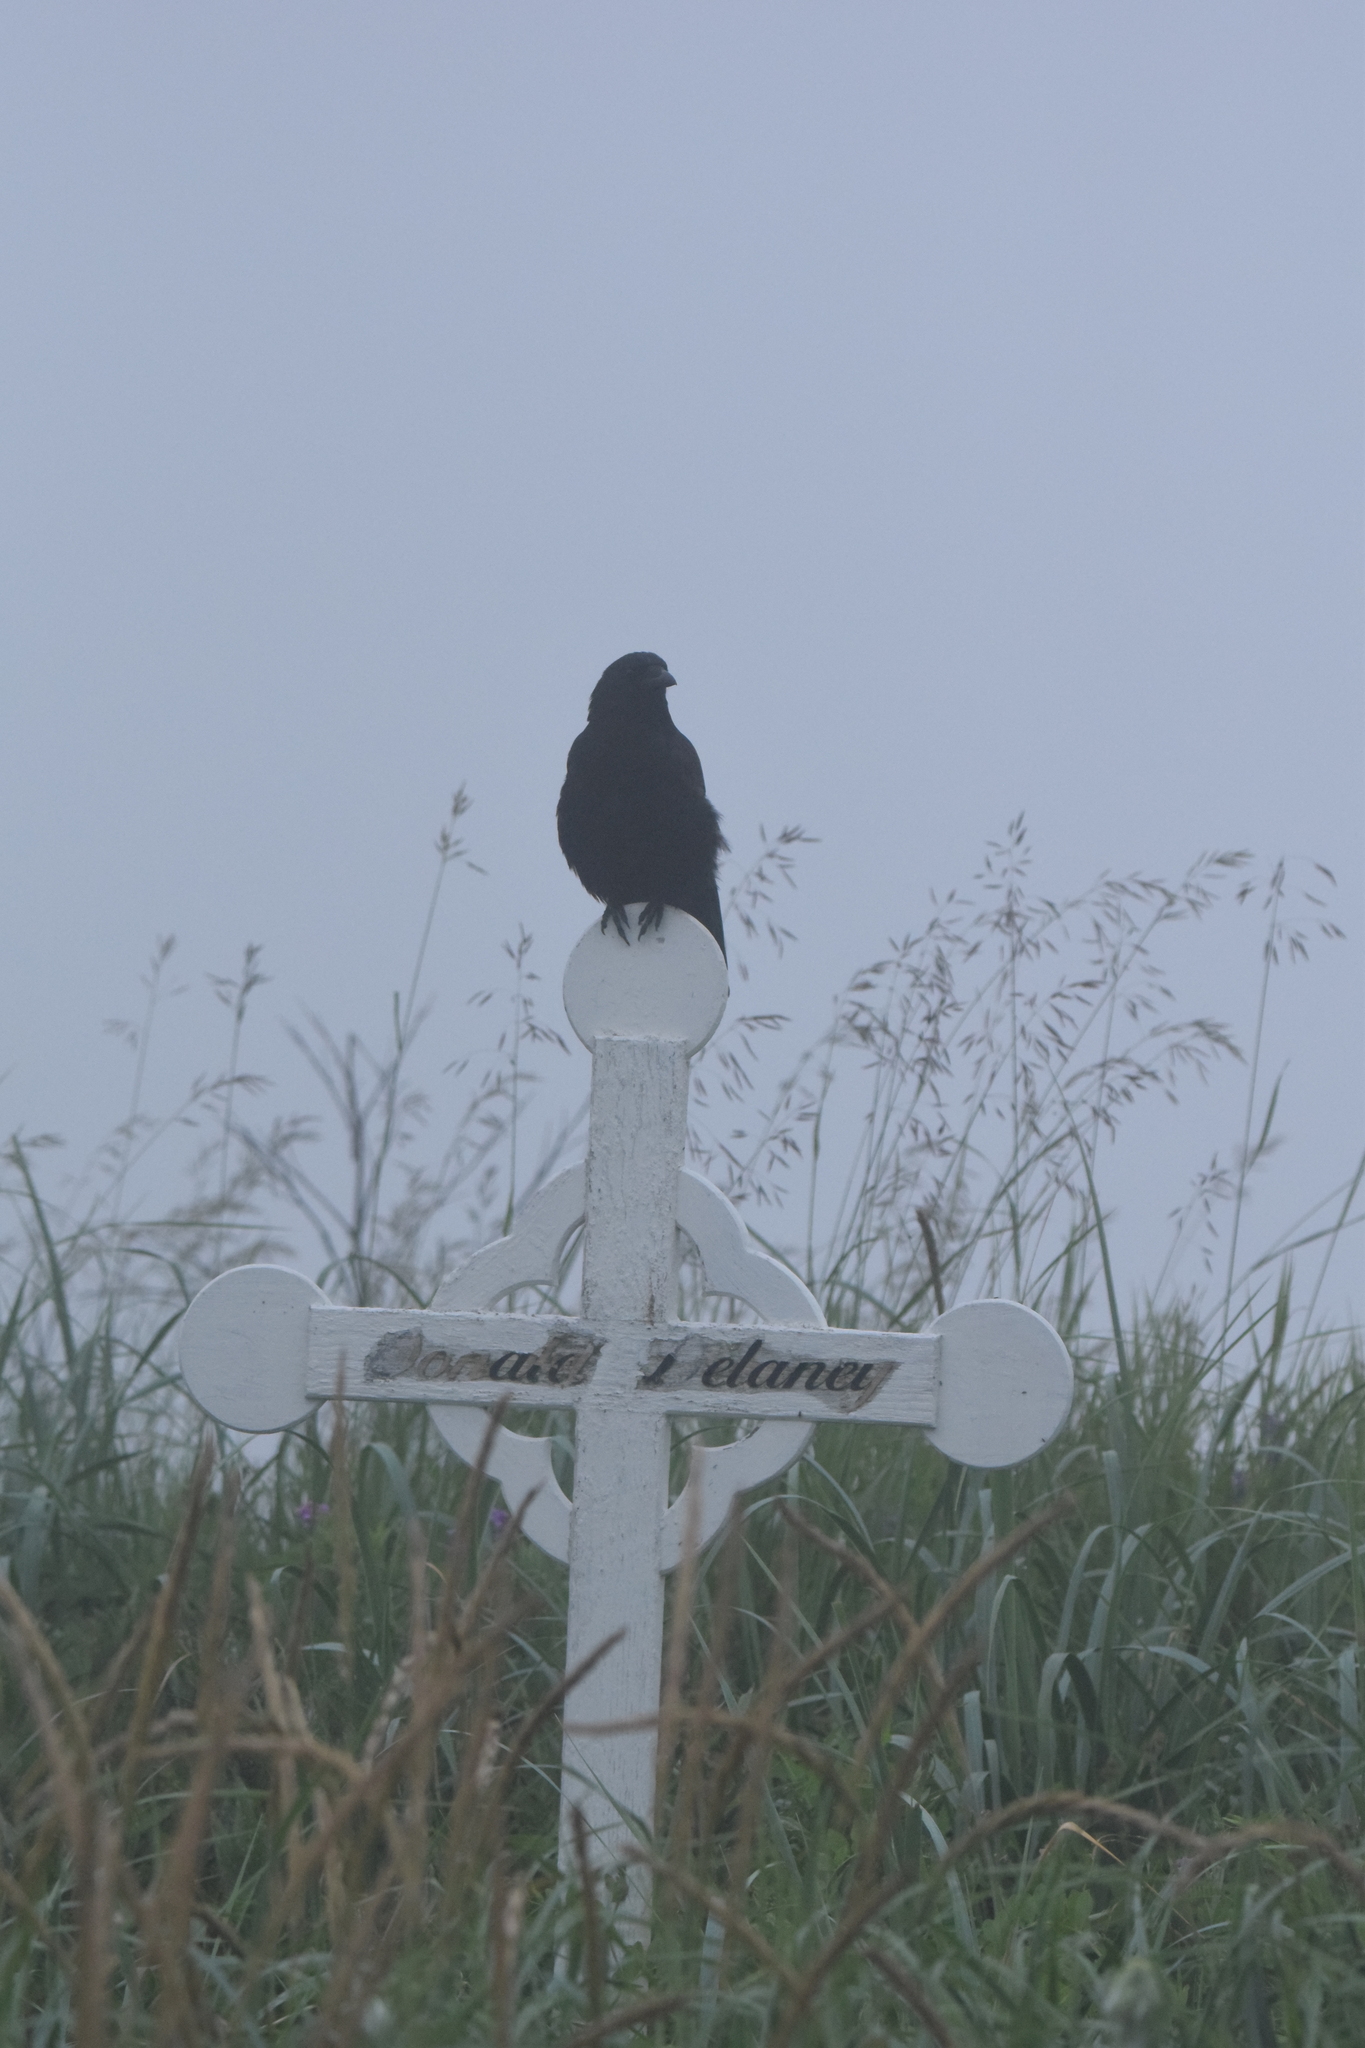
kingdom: Animalia
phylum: Chordata
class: Aves
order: Passeriformes
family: Corvidae
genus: Corvus
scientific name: Corvus brachyrhynchos
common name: American crow
